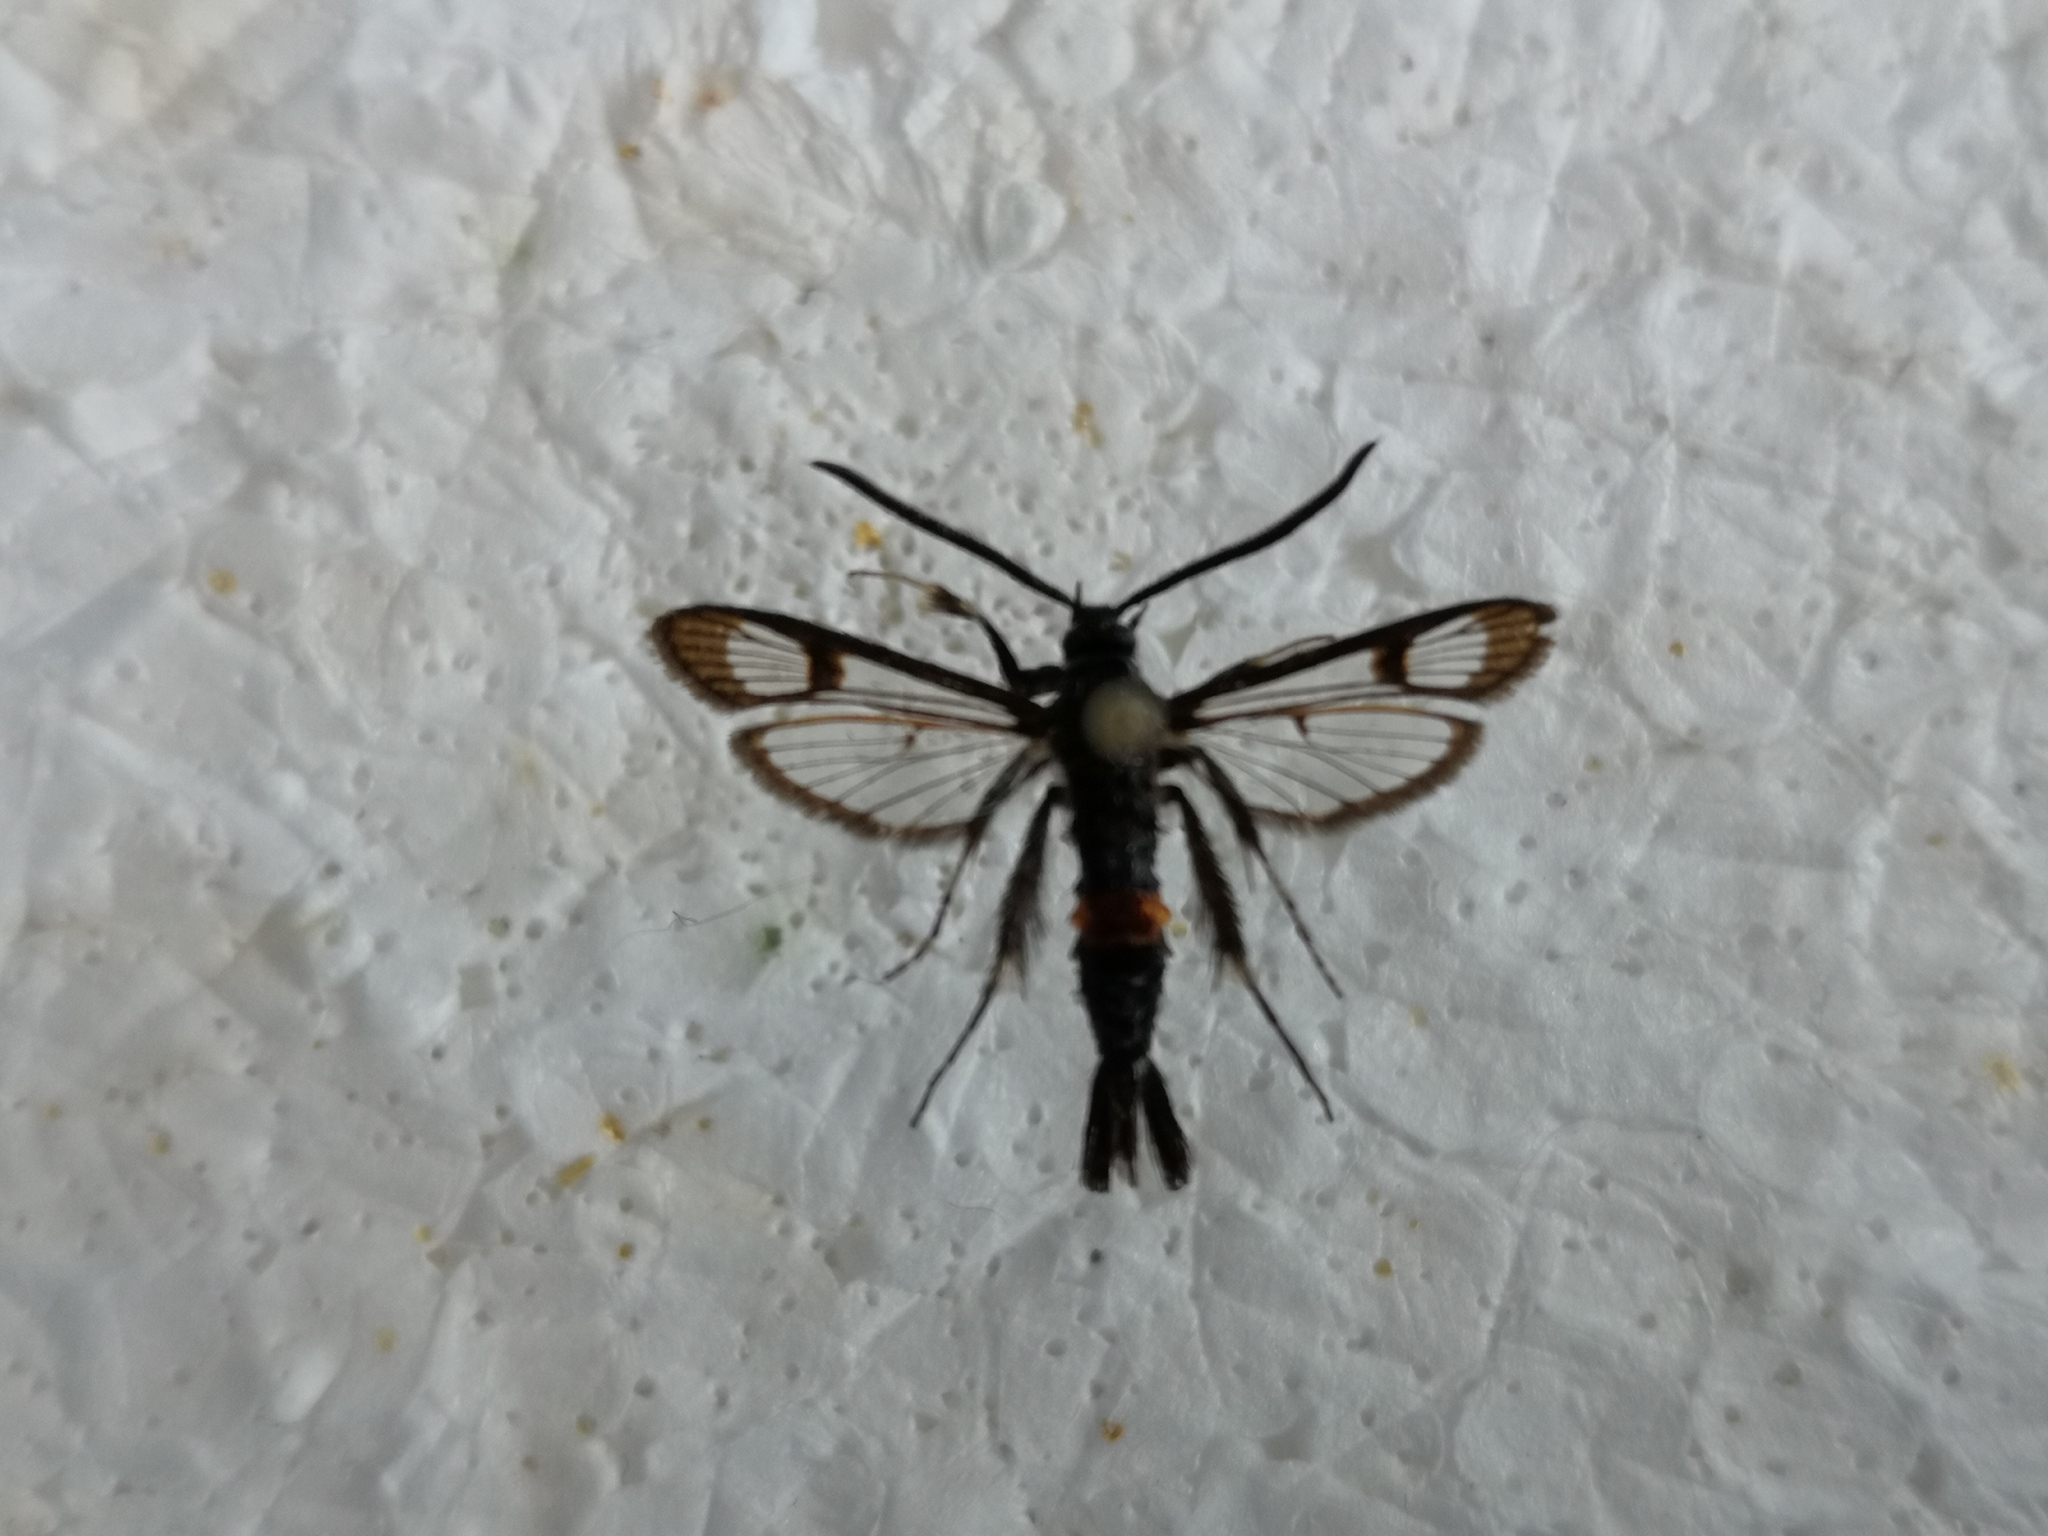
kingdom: Animalia
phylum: Arthropoda
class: Insecta
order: Lepidoptera
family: Sesiidae
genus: Synanthedon
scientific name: Synanthedon myopaeformis
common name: Red-belted clearwing
